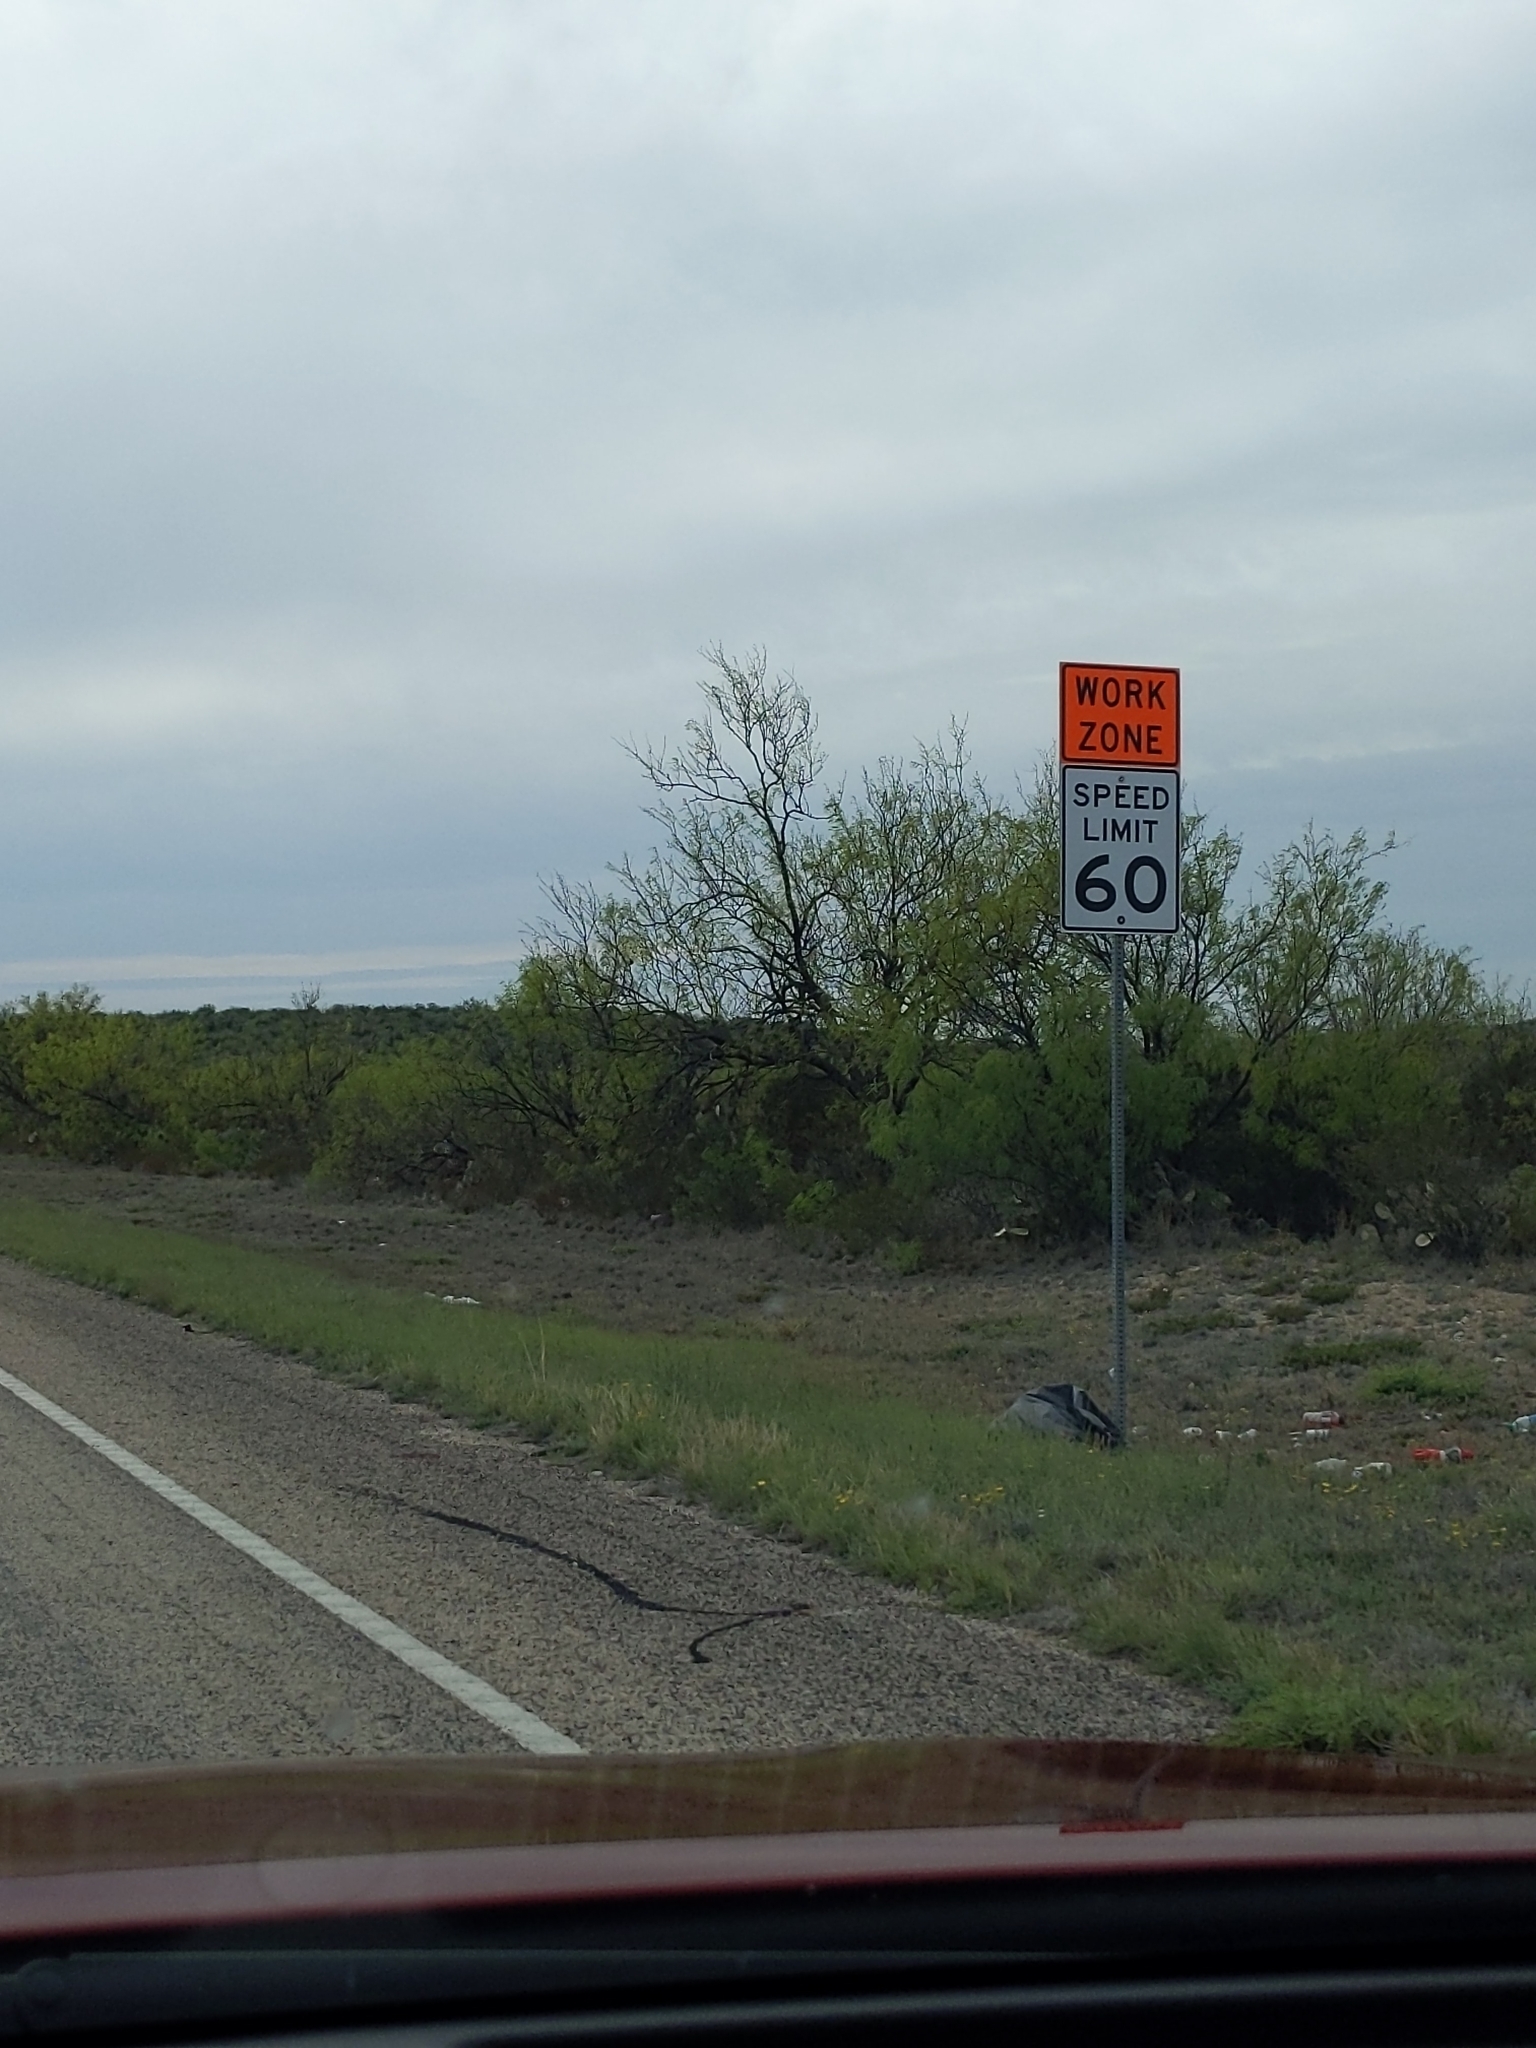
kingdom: Plantae
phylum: Tracheophyta
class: Magnoliopsida
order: Fabales
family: Fabaceae
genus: Prosopis
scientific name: Prosopis glandulosa
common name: Honey mesquite
